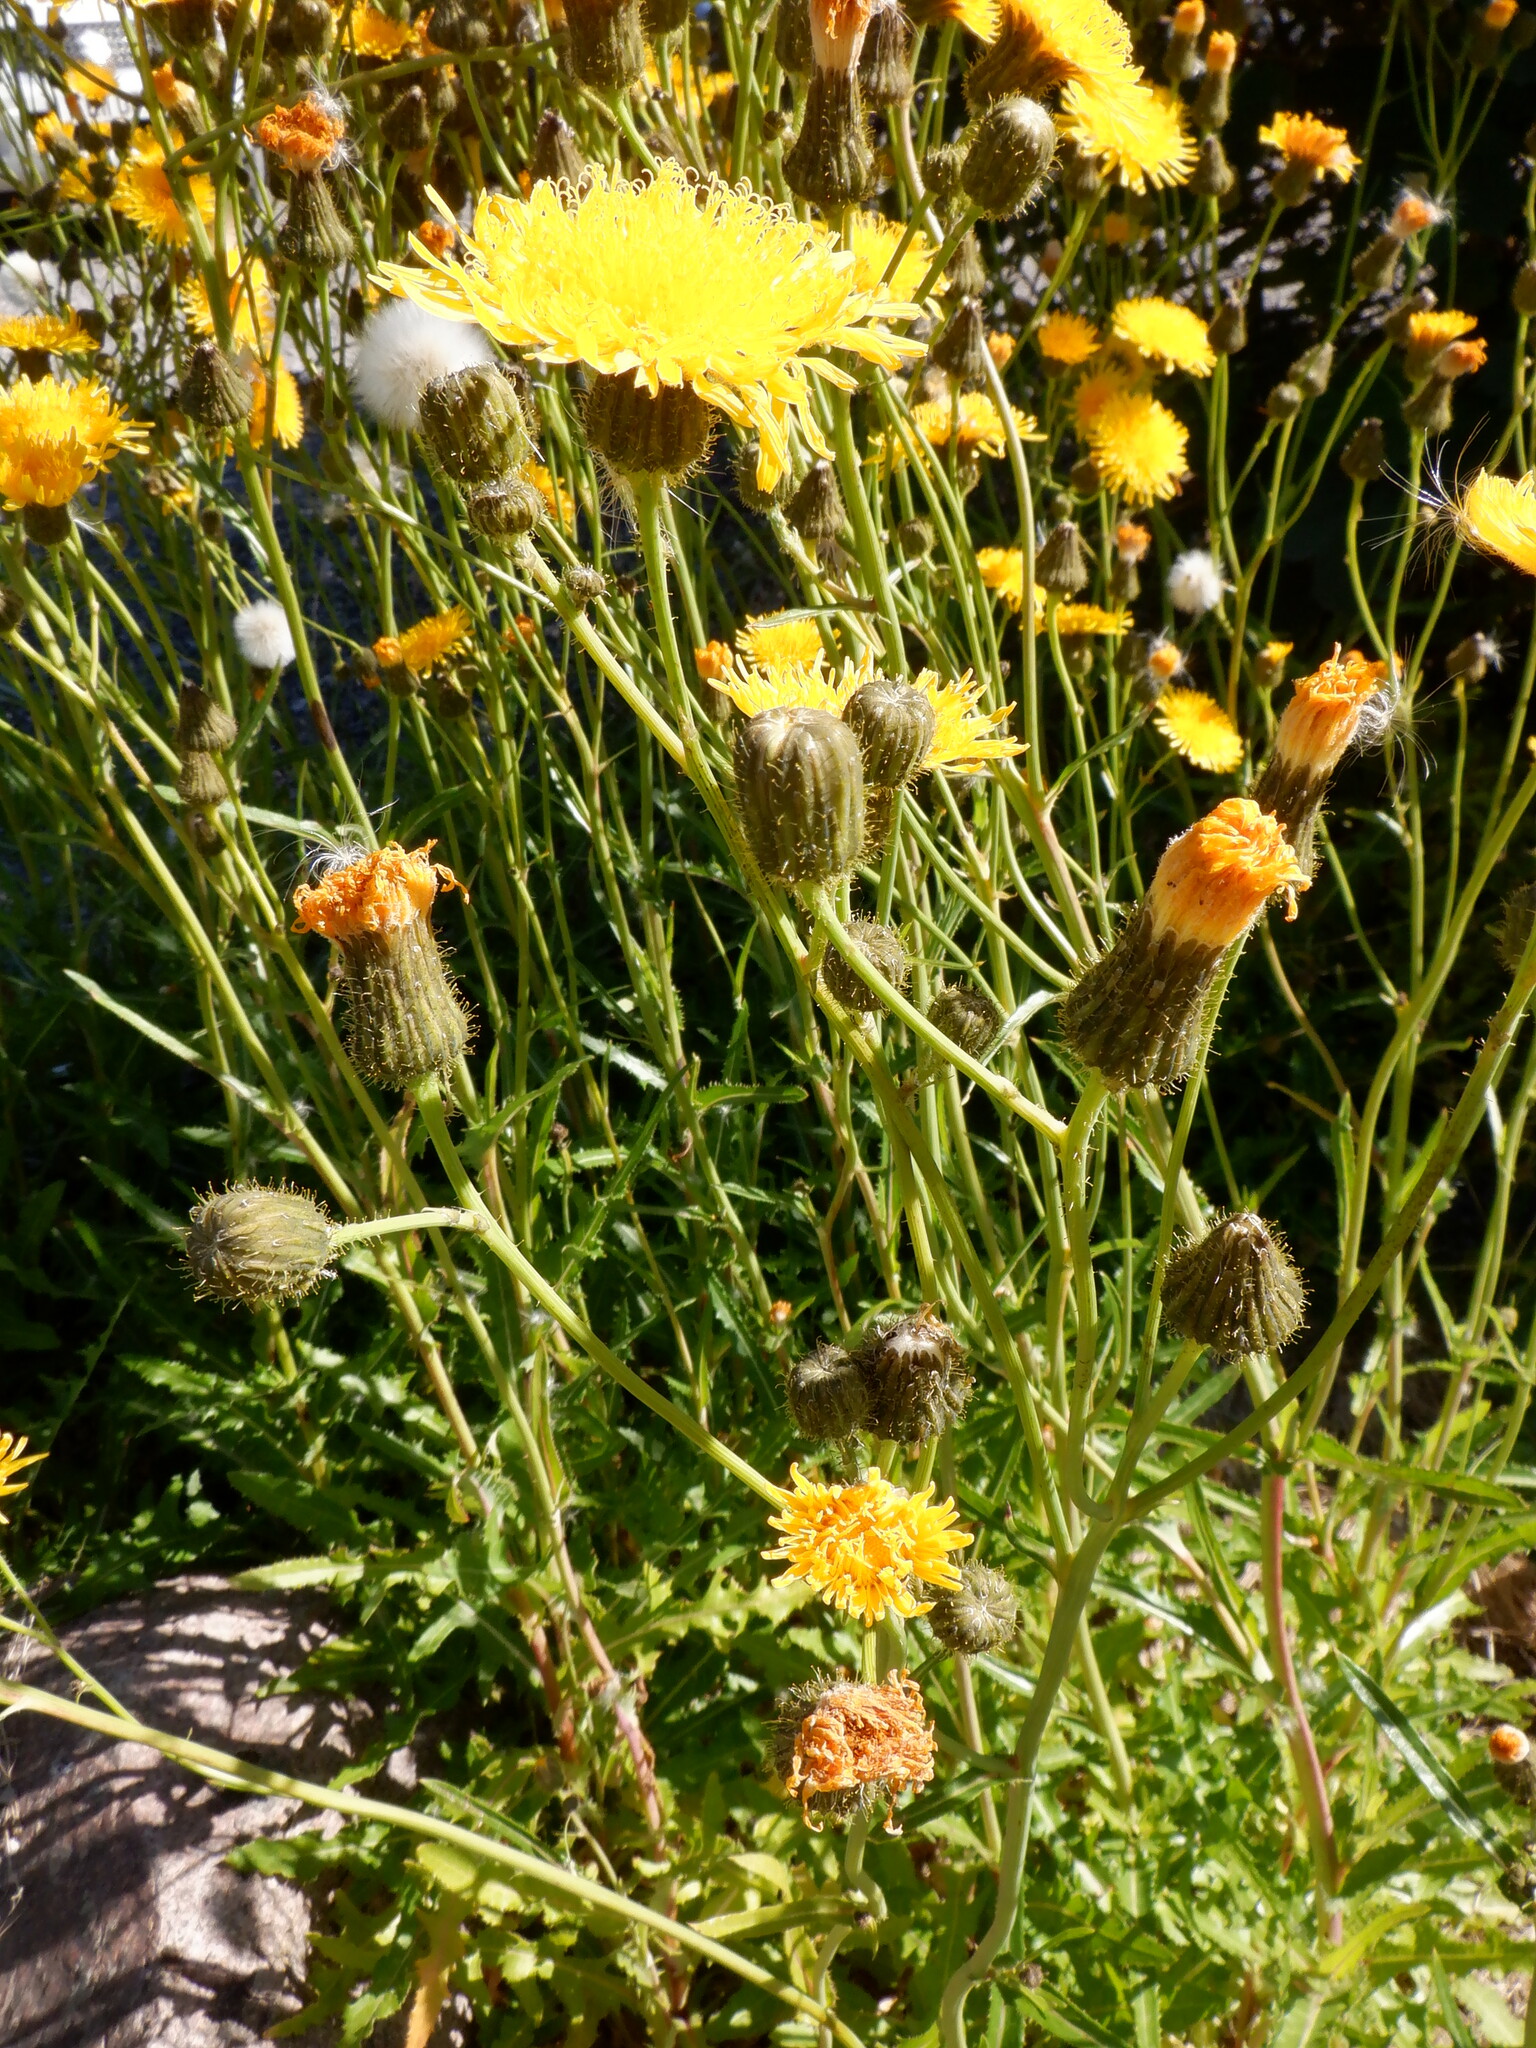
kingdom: Plantae
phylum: Tracheophyta
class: Magnoliopsida
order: Asterales
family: Asteraceae
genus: Sonchus
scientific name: Sonchus arvensis
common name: Perennial sow-thistle
